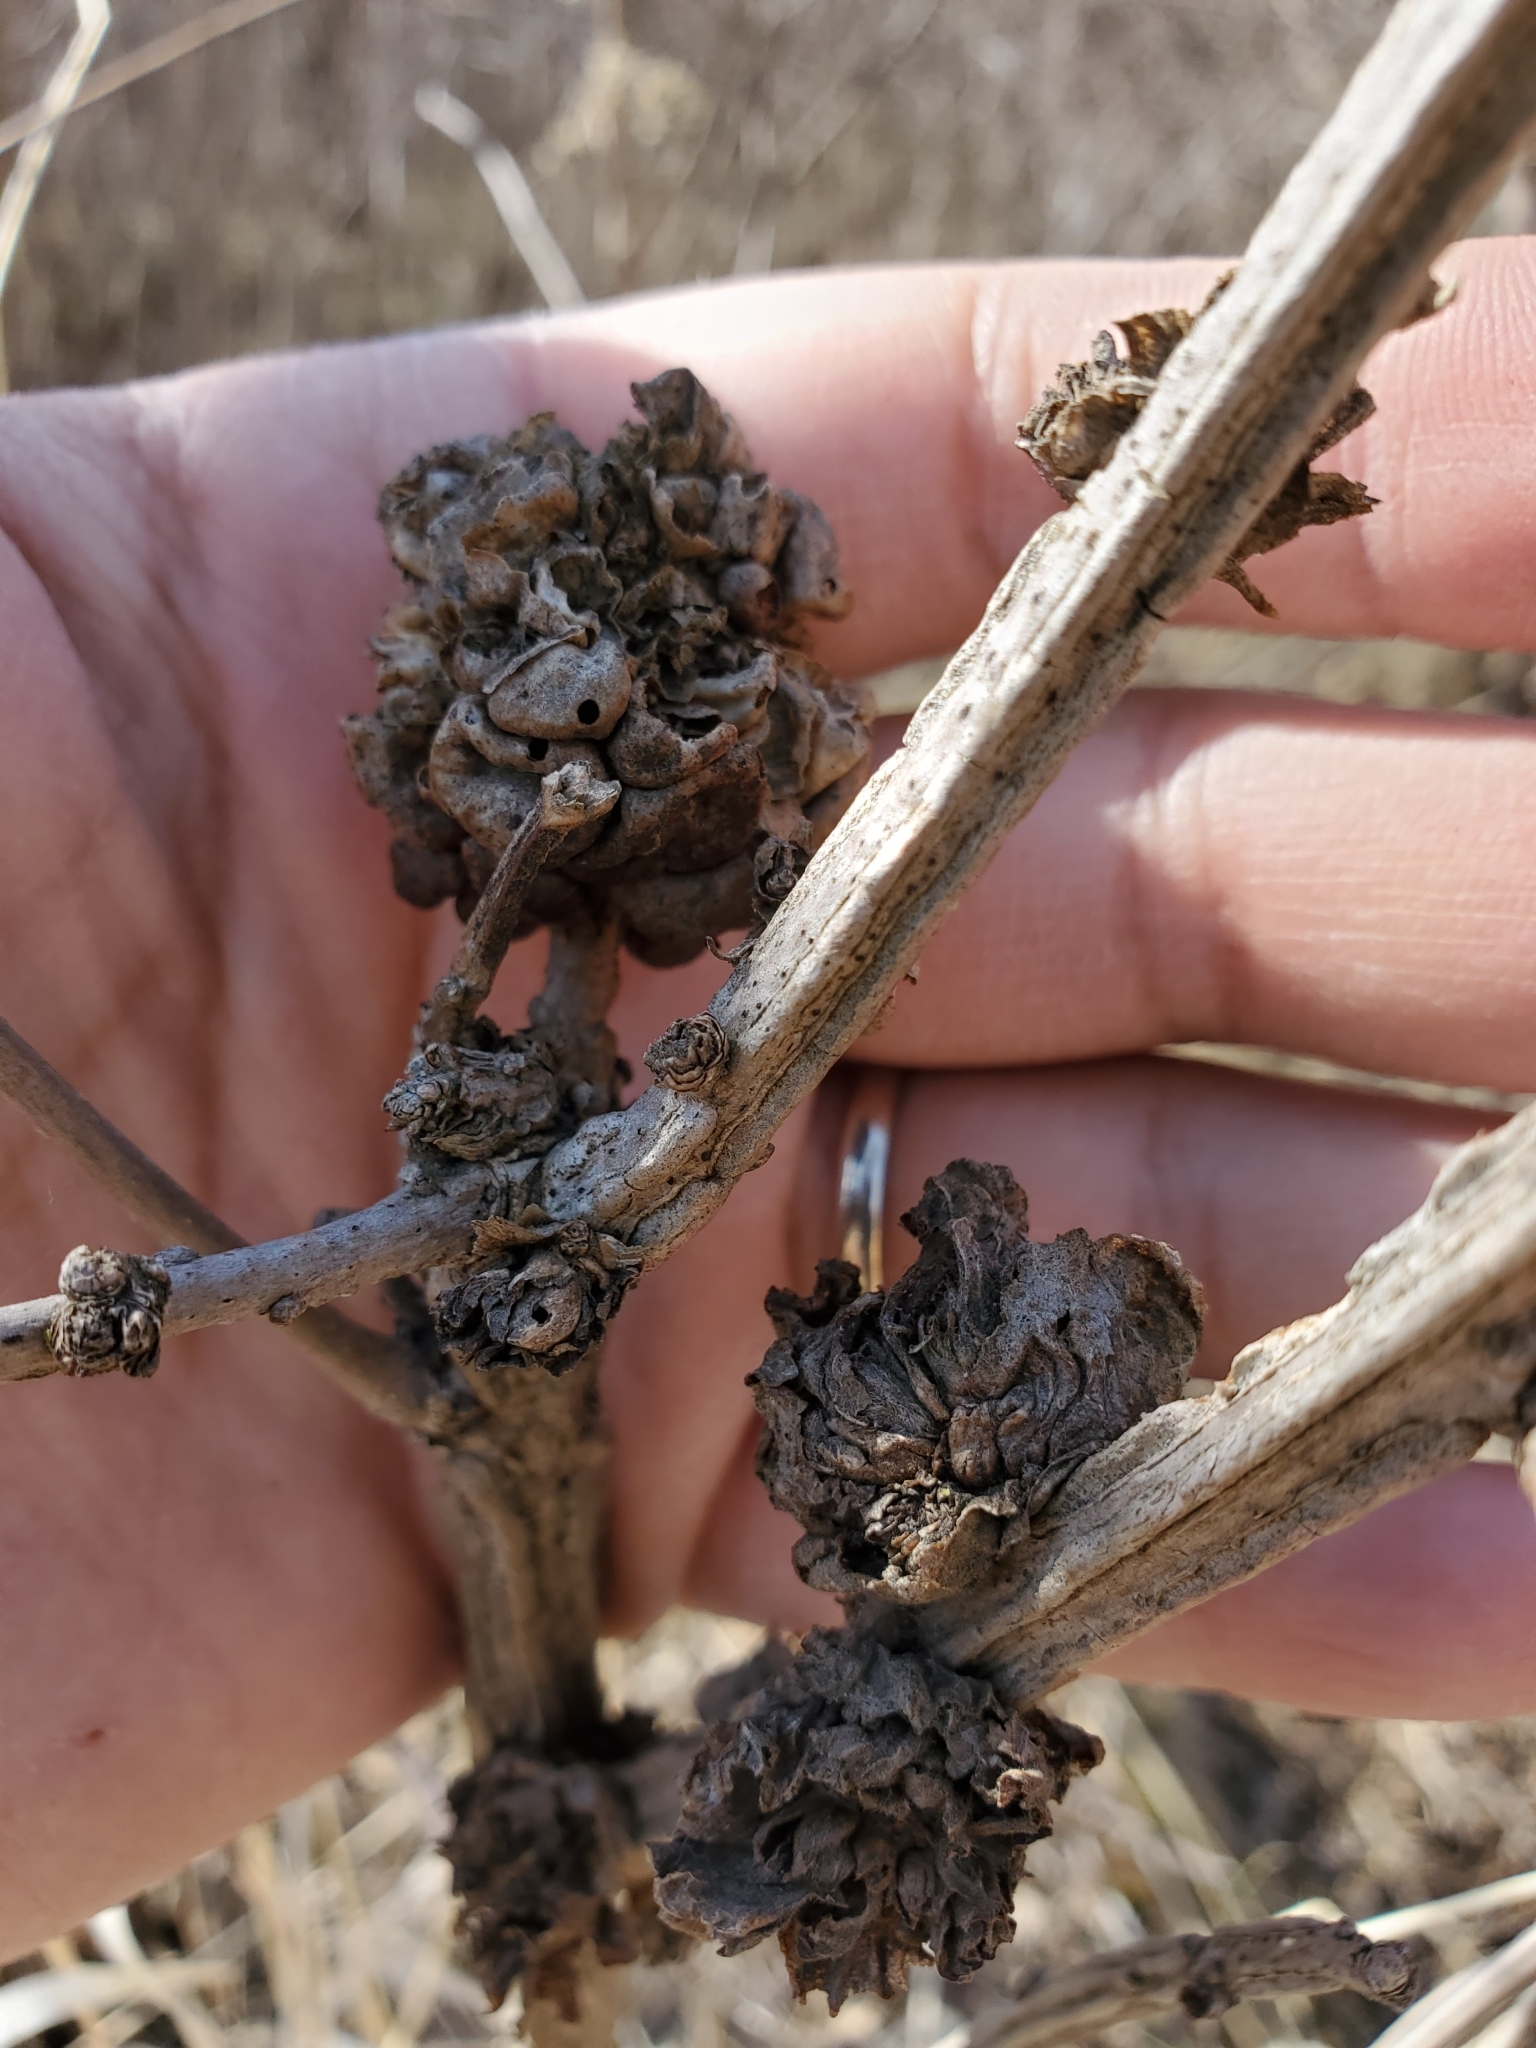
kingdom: Animalia
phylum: Arthropoda
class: Insecta
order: Hymenoptera
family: Cynipidae
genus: Trigonaspis
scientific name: Trigonaspis quercusforticornis
